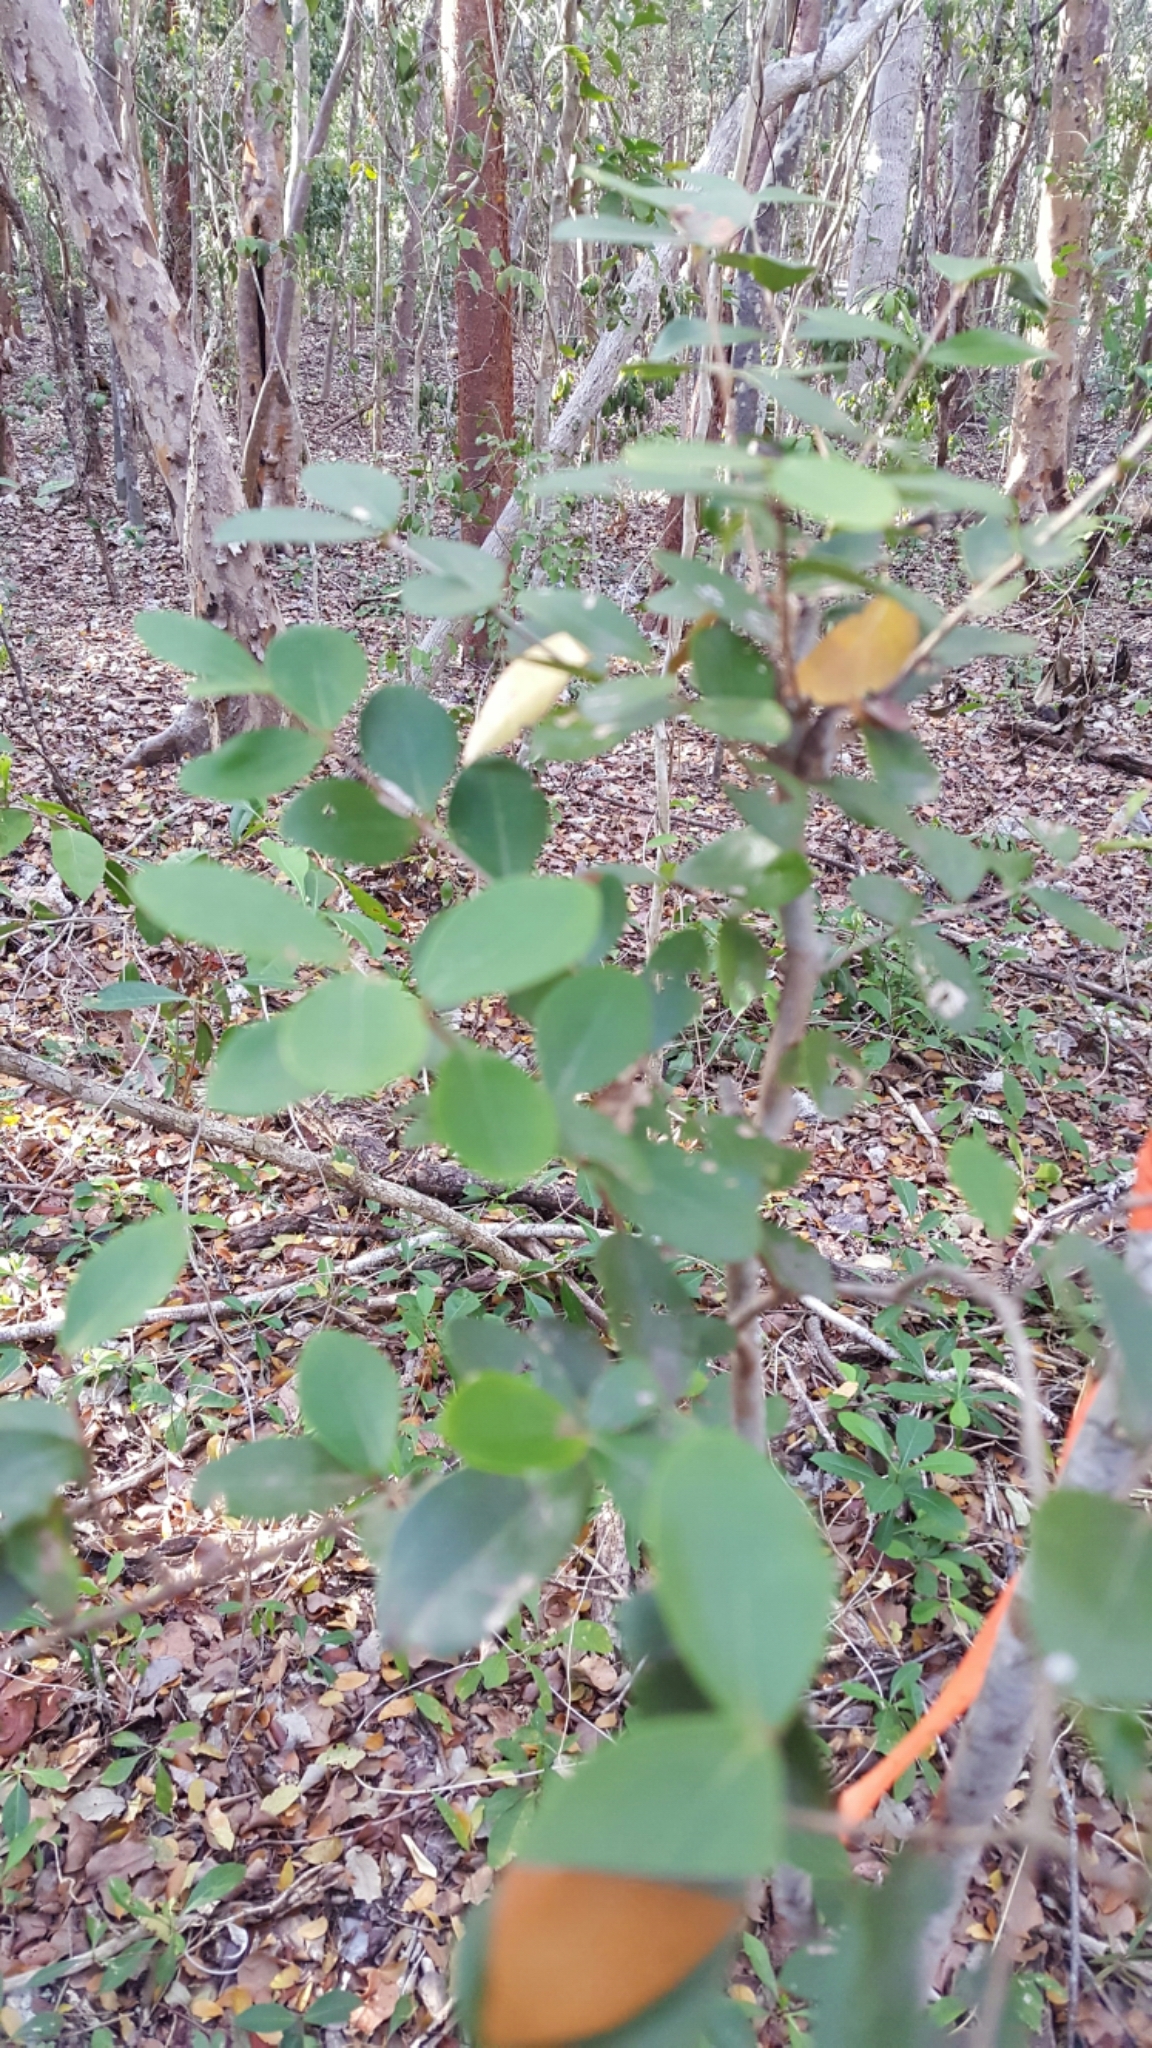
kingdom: Plantae
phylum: Tracheophyta
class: Magnoliopsida
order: Myrtales
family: Myrtaceae
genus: Eugenia
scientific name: Eugenia foetida
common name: White wattling
